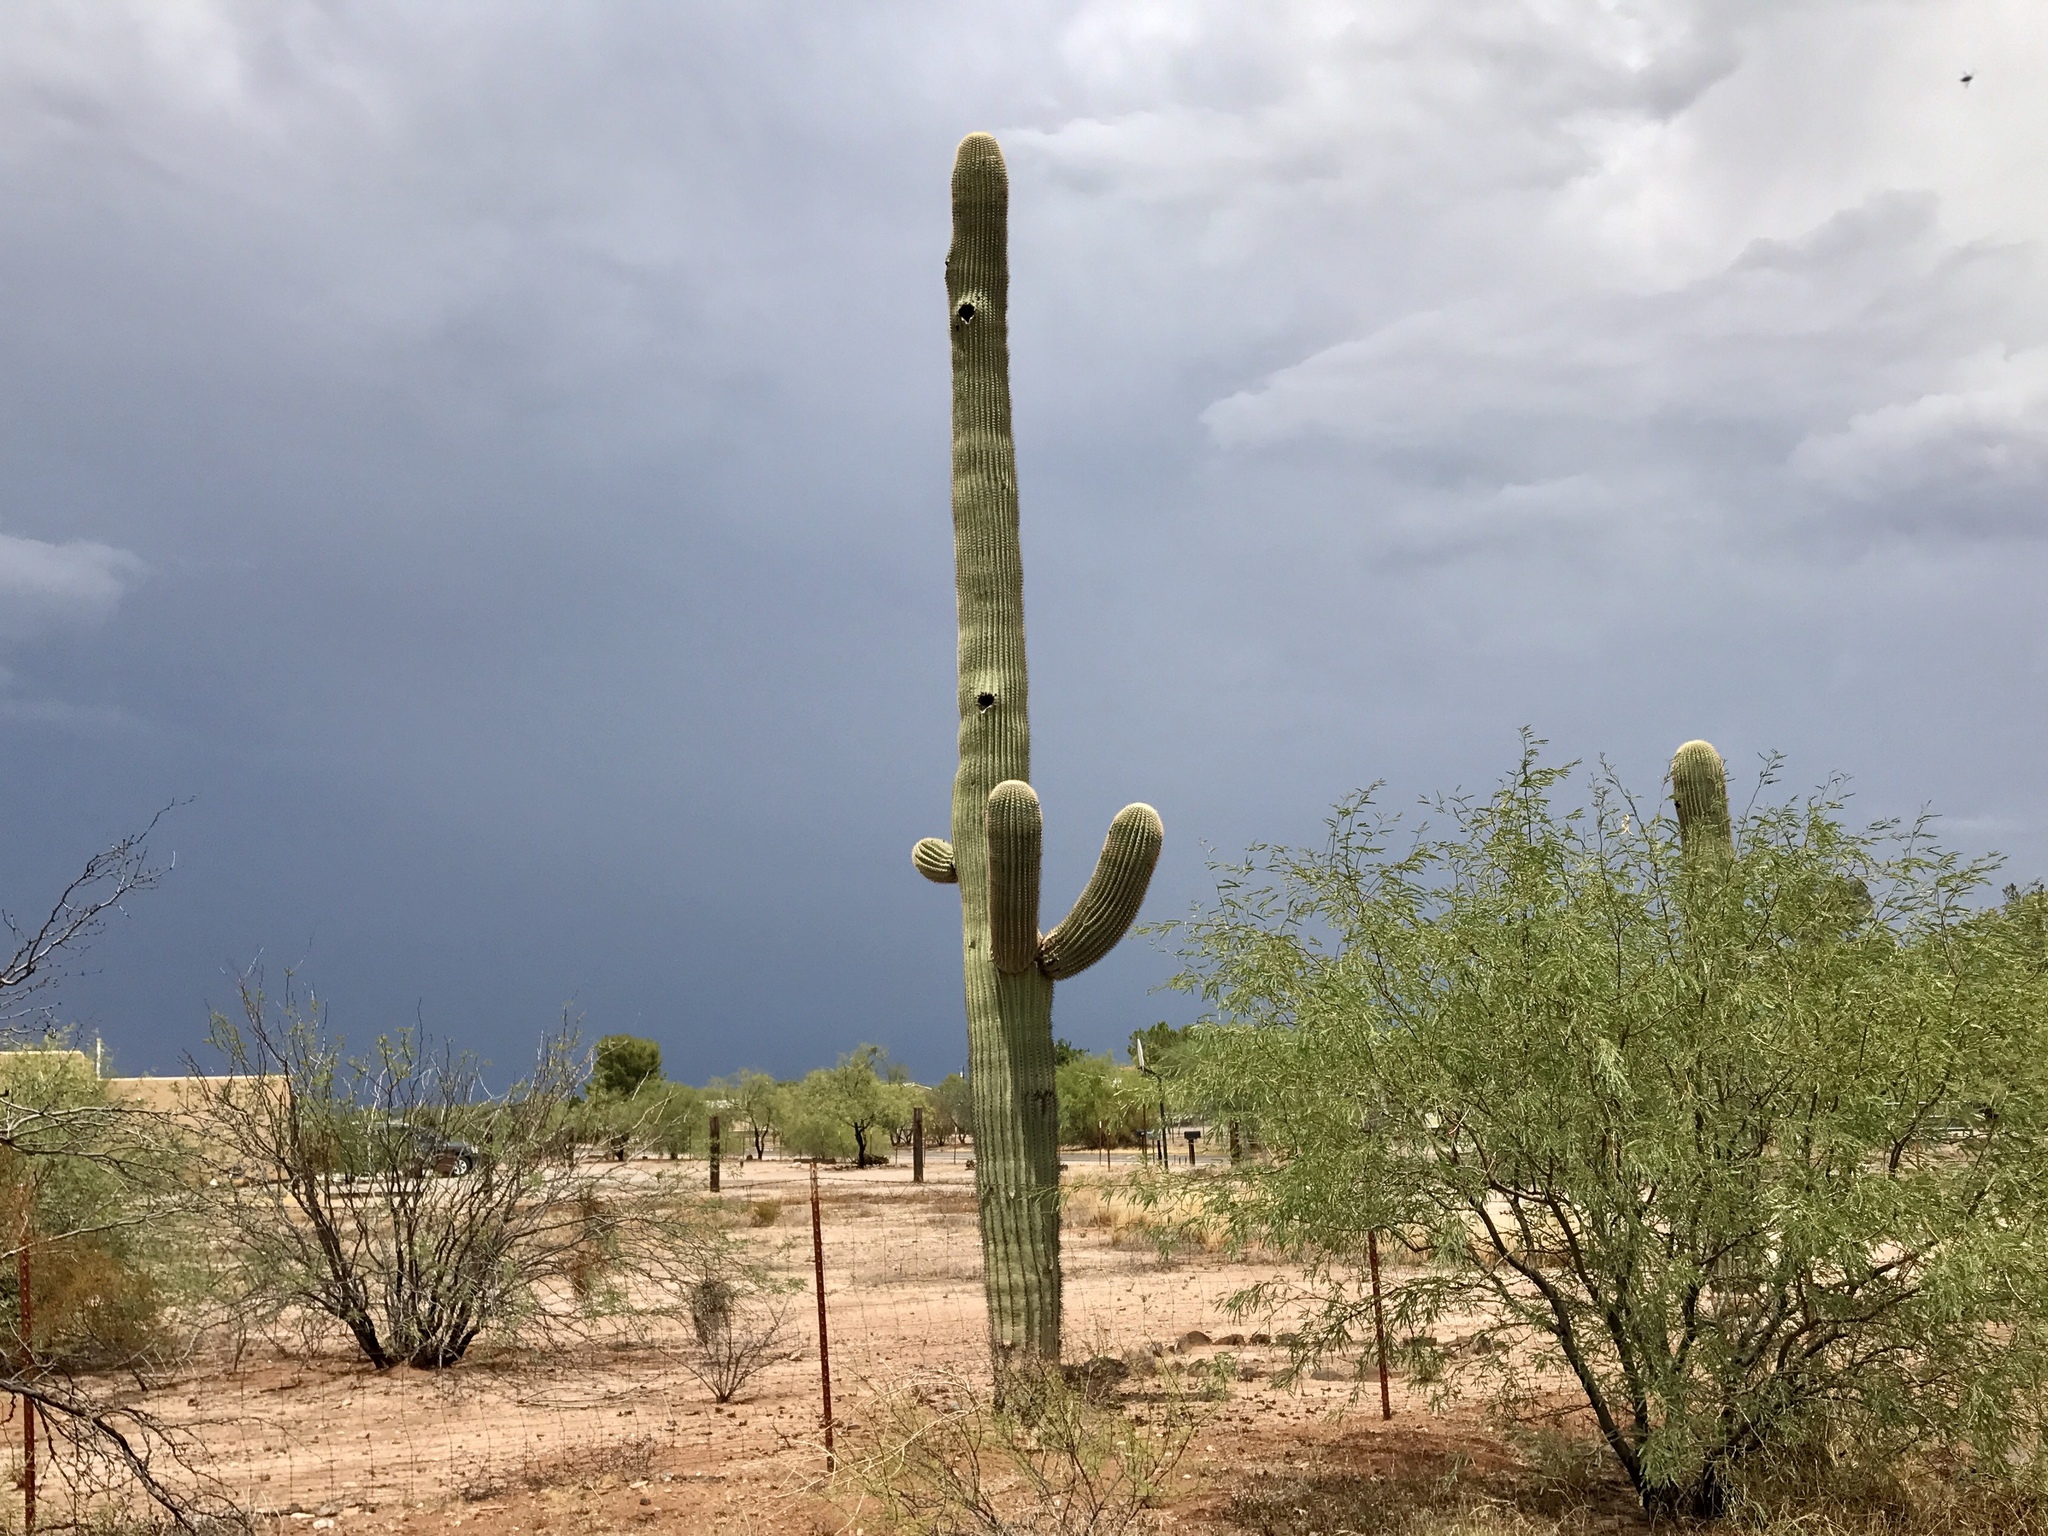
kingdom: Plantae
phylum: Tracheophyta
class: Magnoliopsida
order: Caryophyllales
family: Cactaceae
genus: Carnegiea
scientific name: Carnegiea gigantea
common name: Saguaro
